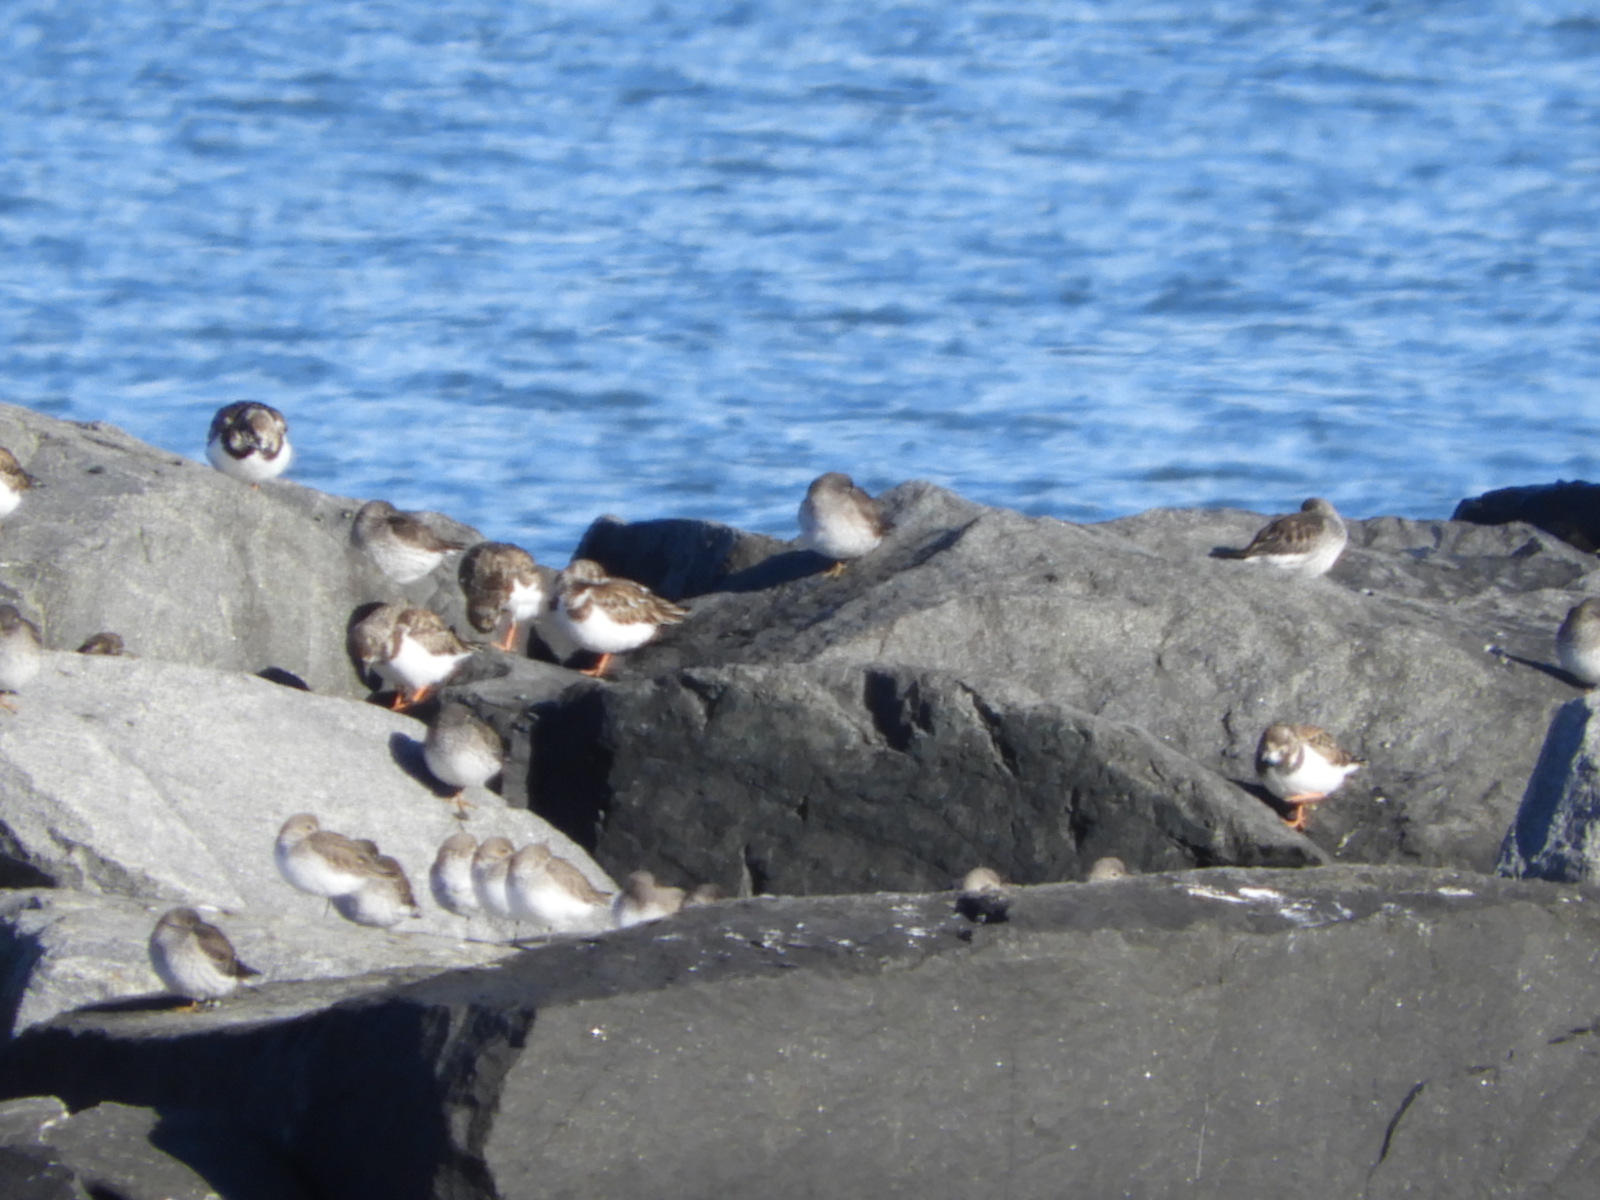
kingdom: Animalia
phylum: Chordata
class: Aves
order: Charadriiformes
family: Scolopacidae
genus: Arenaria
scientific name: Arenaria interpres
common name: Ruddy turnstone
